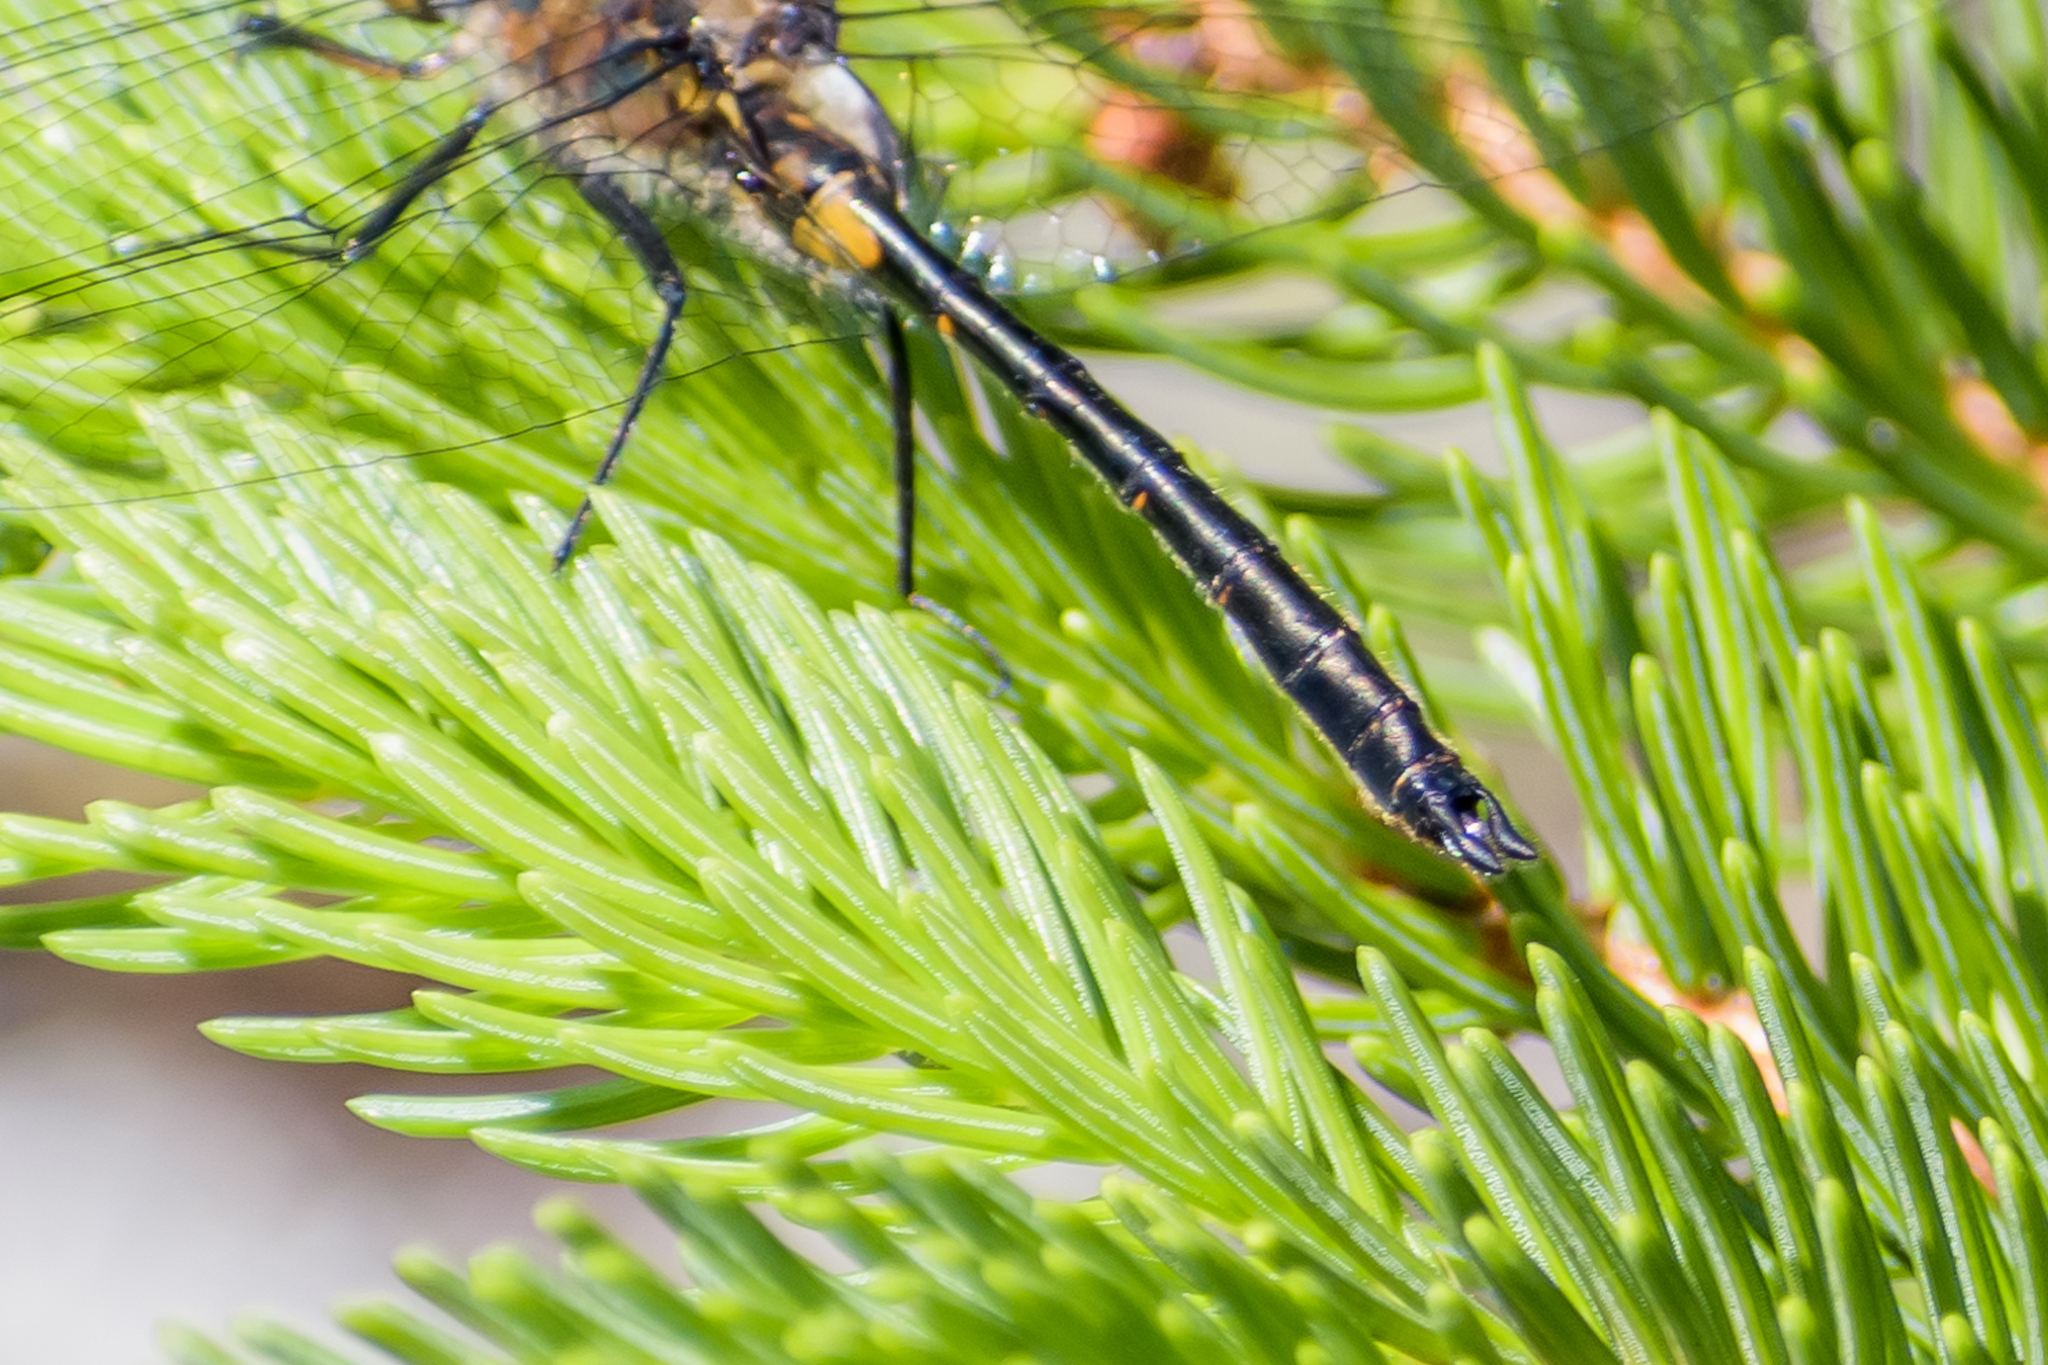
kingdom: Animalia
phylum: Arthropoda
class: Insecta
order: Odonata
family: Corduliidae
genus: Dorocordulia
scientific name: Dorocordulia lepida
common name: Petite emerald
